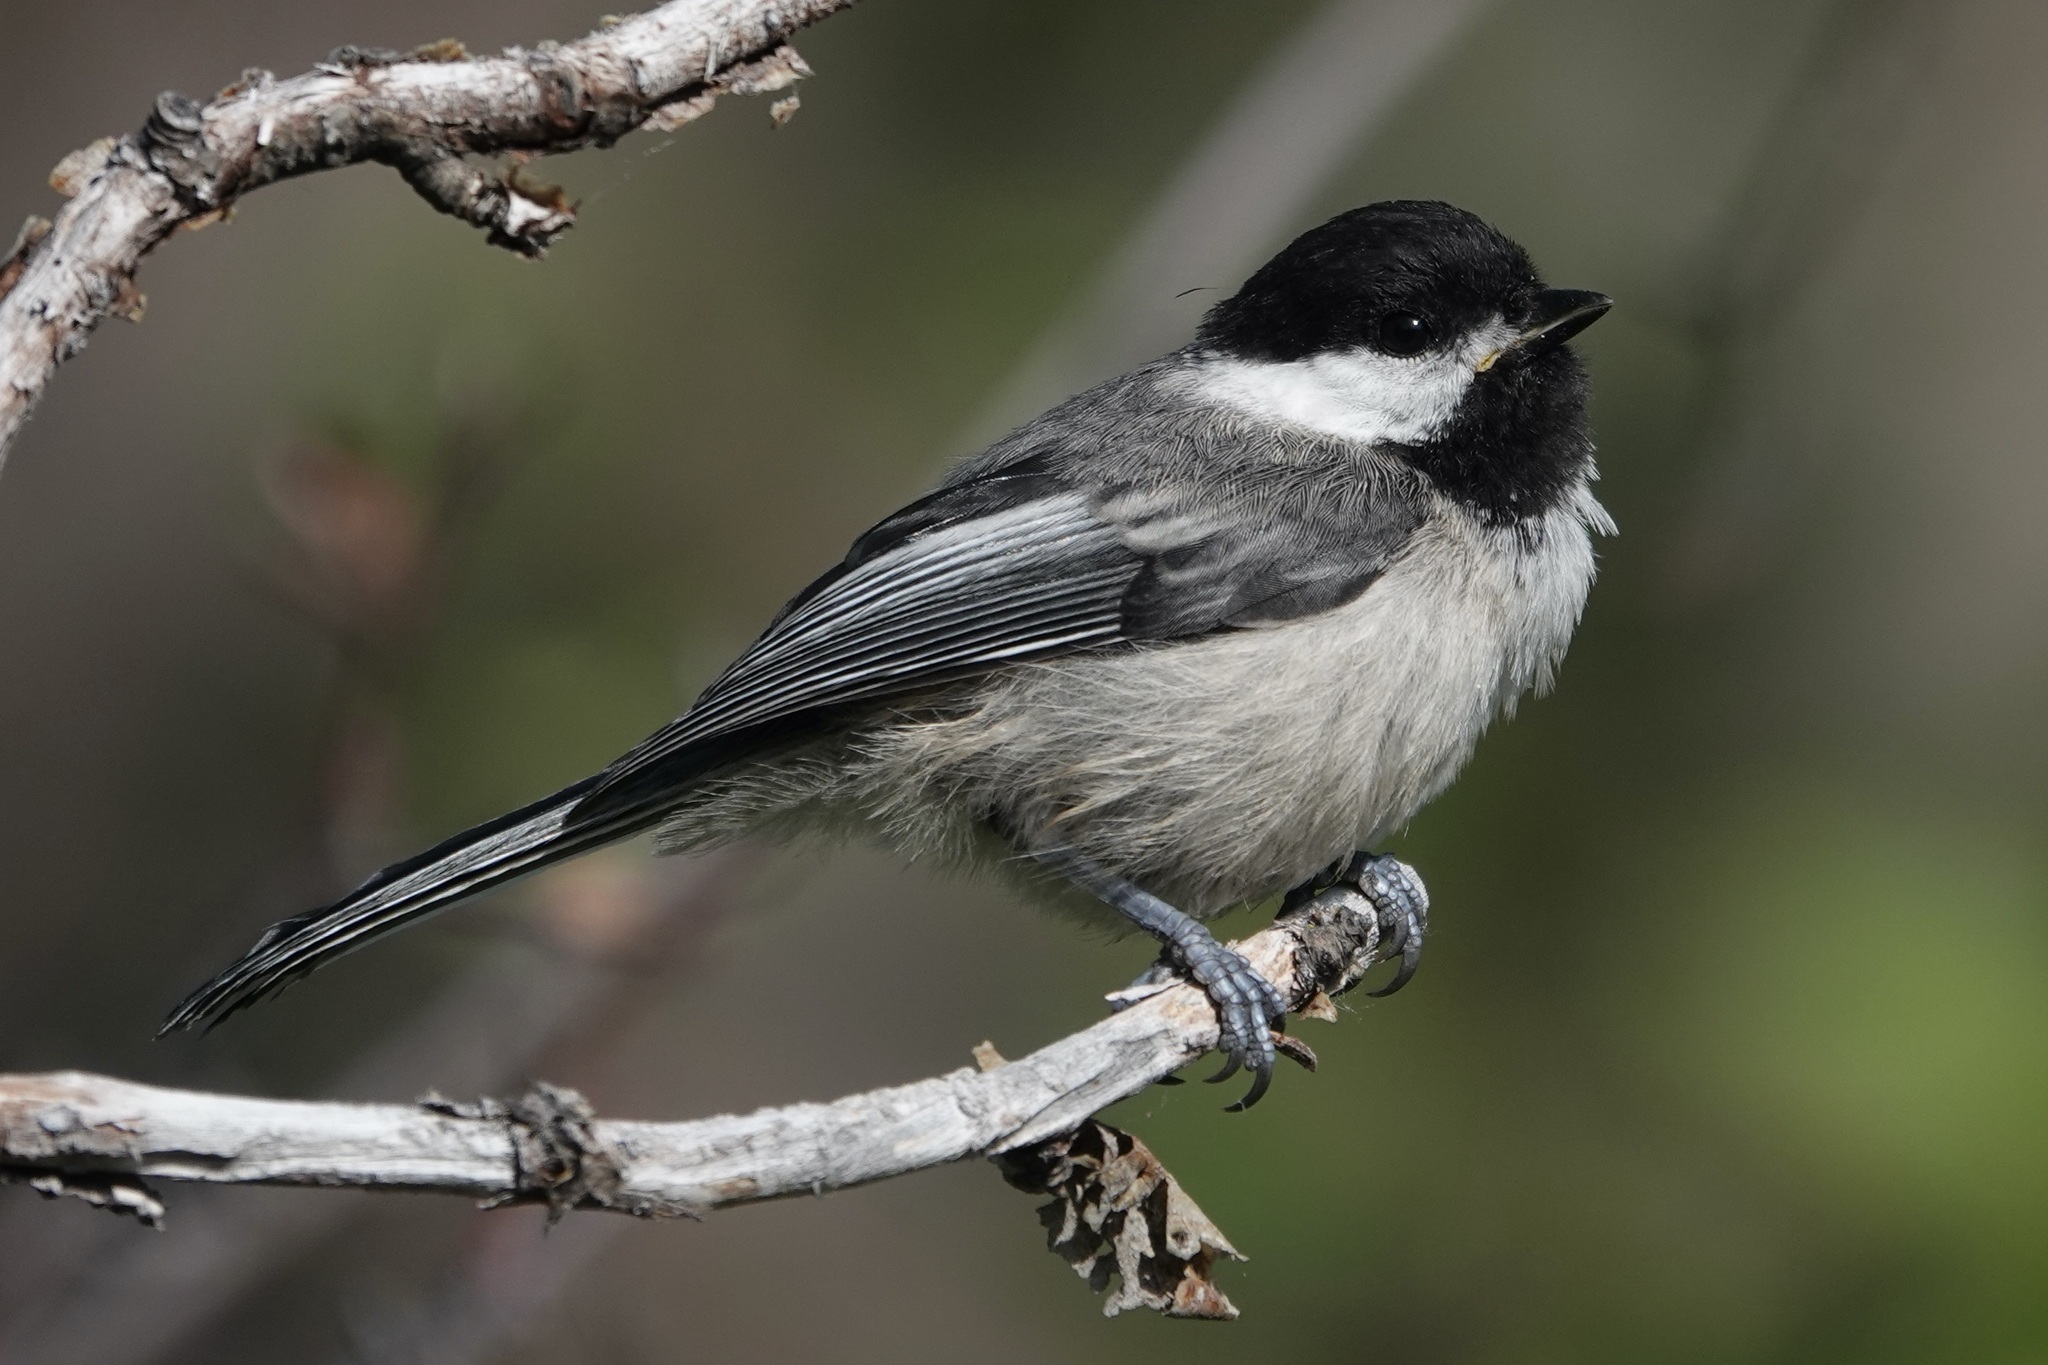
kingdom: Animalia
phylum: Chordata
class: Aves
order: Passeriformes
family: Paridae
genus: Poecile
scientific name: Poecile atricapillus
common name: Black-capped chickadee
